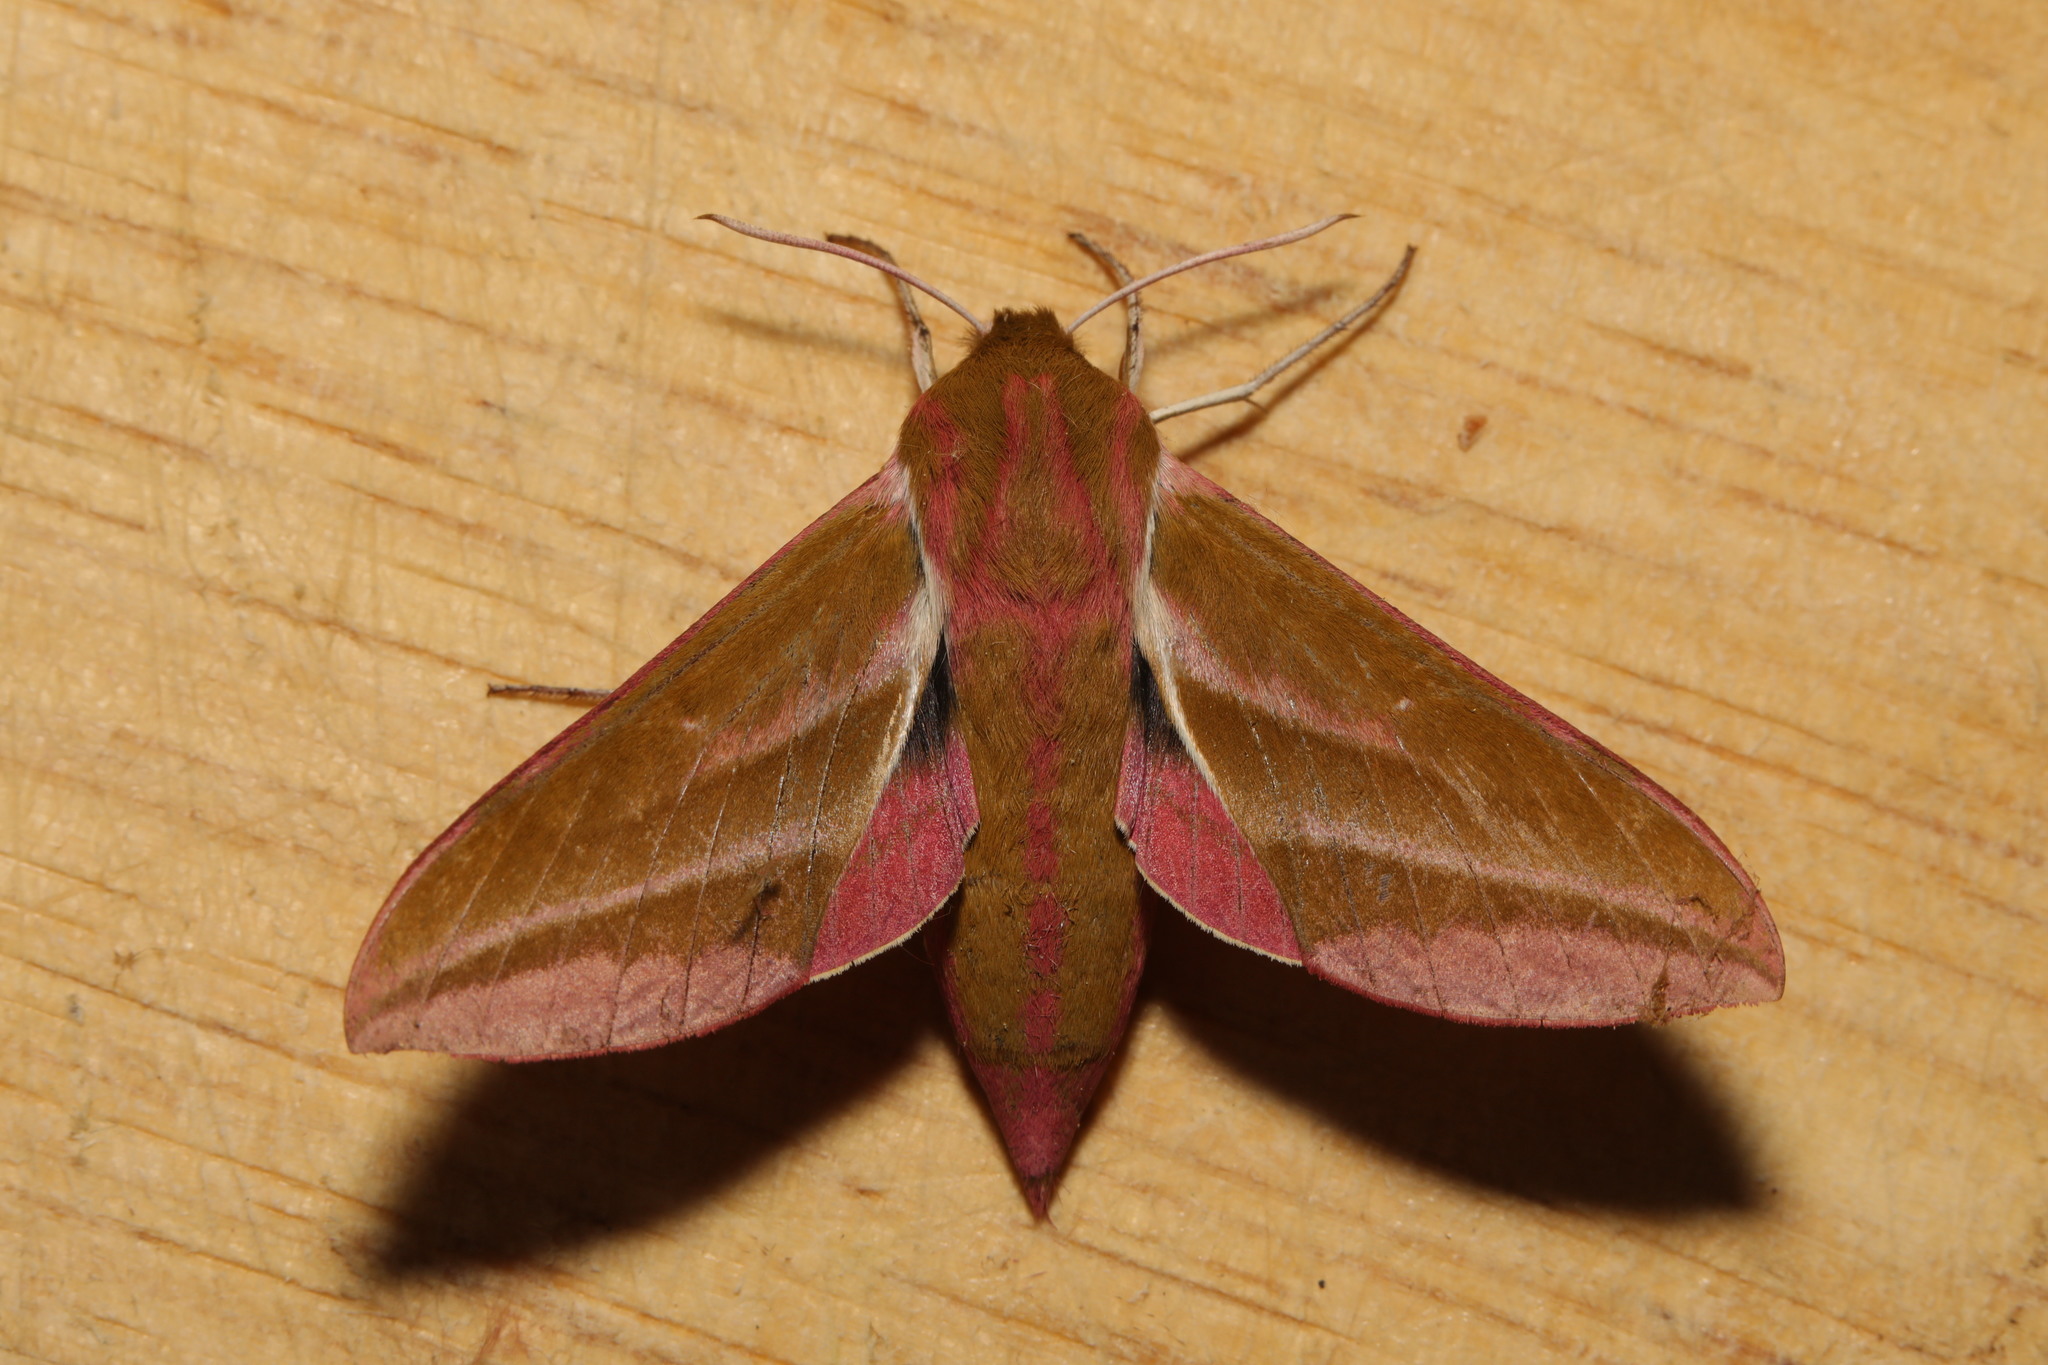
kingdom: Animalia
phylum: Arthropoda
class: Insecta
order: Lepidoptera
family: Sphingidae
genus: Deilephila
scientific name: Deilephila elpenor
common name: Elephant hawk-moth
